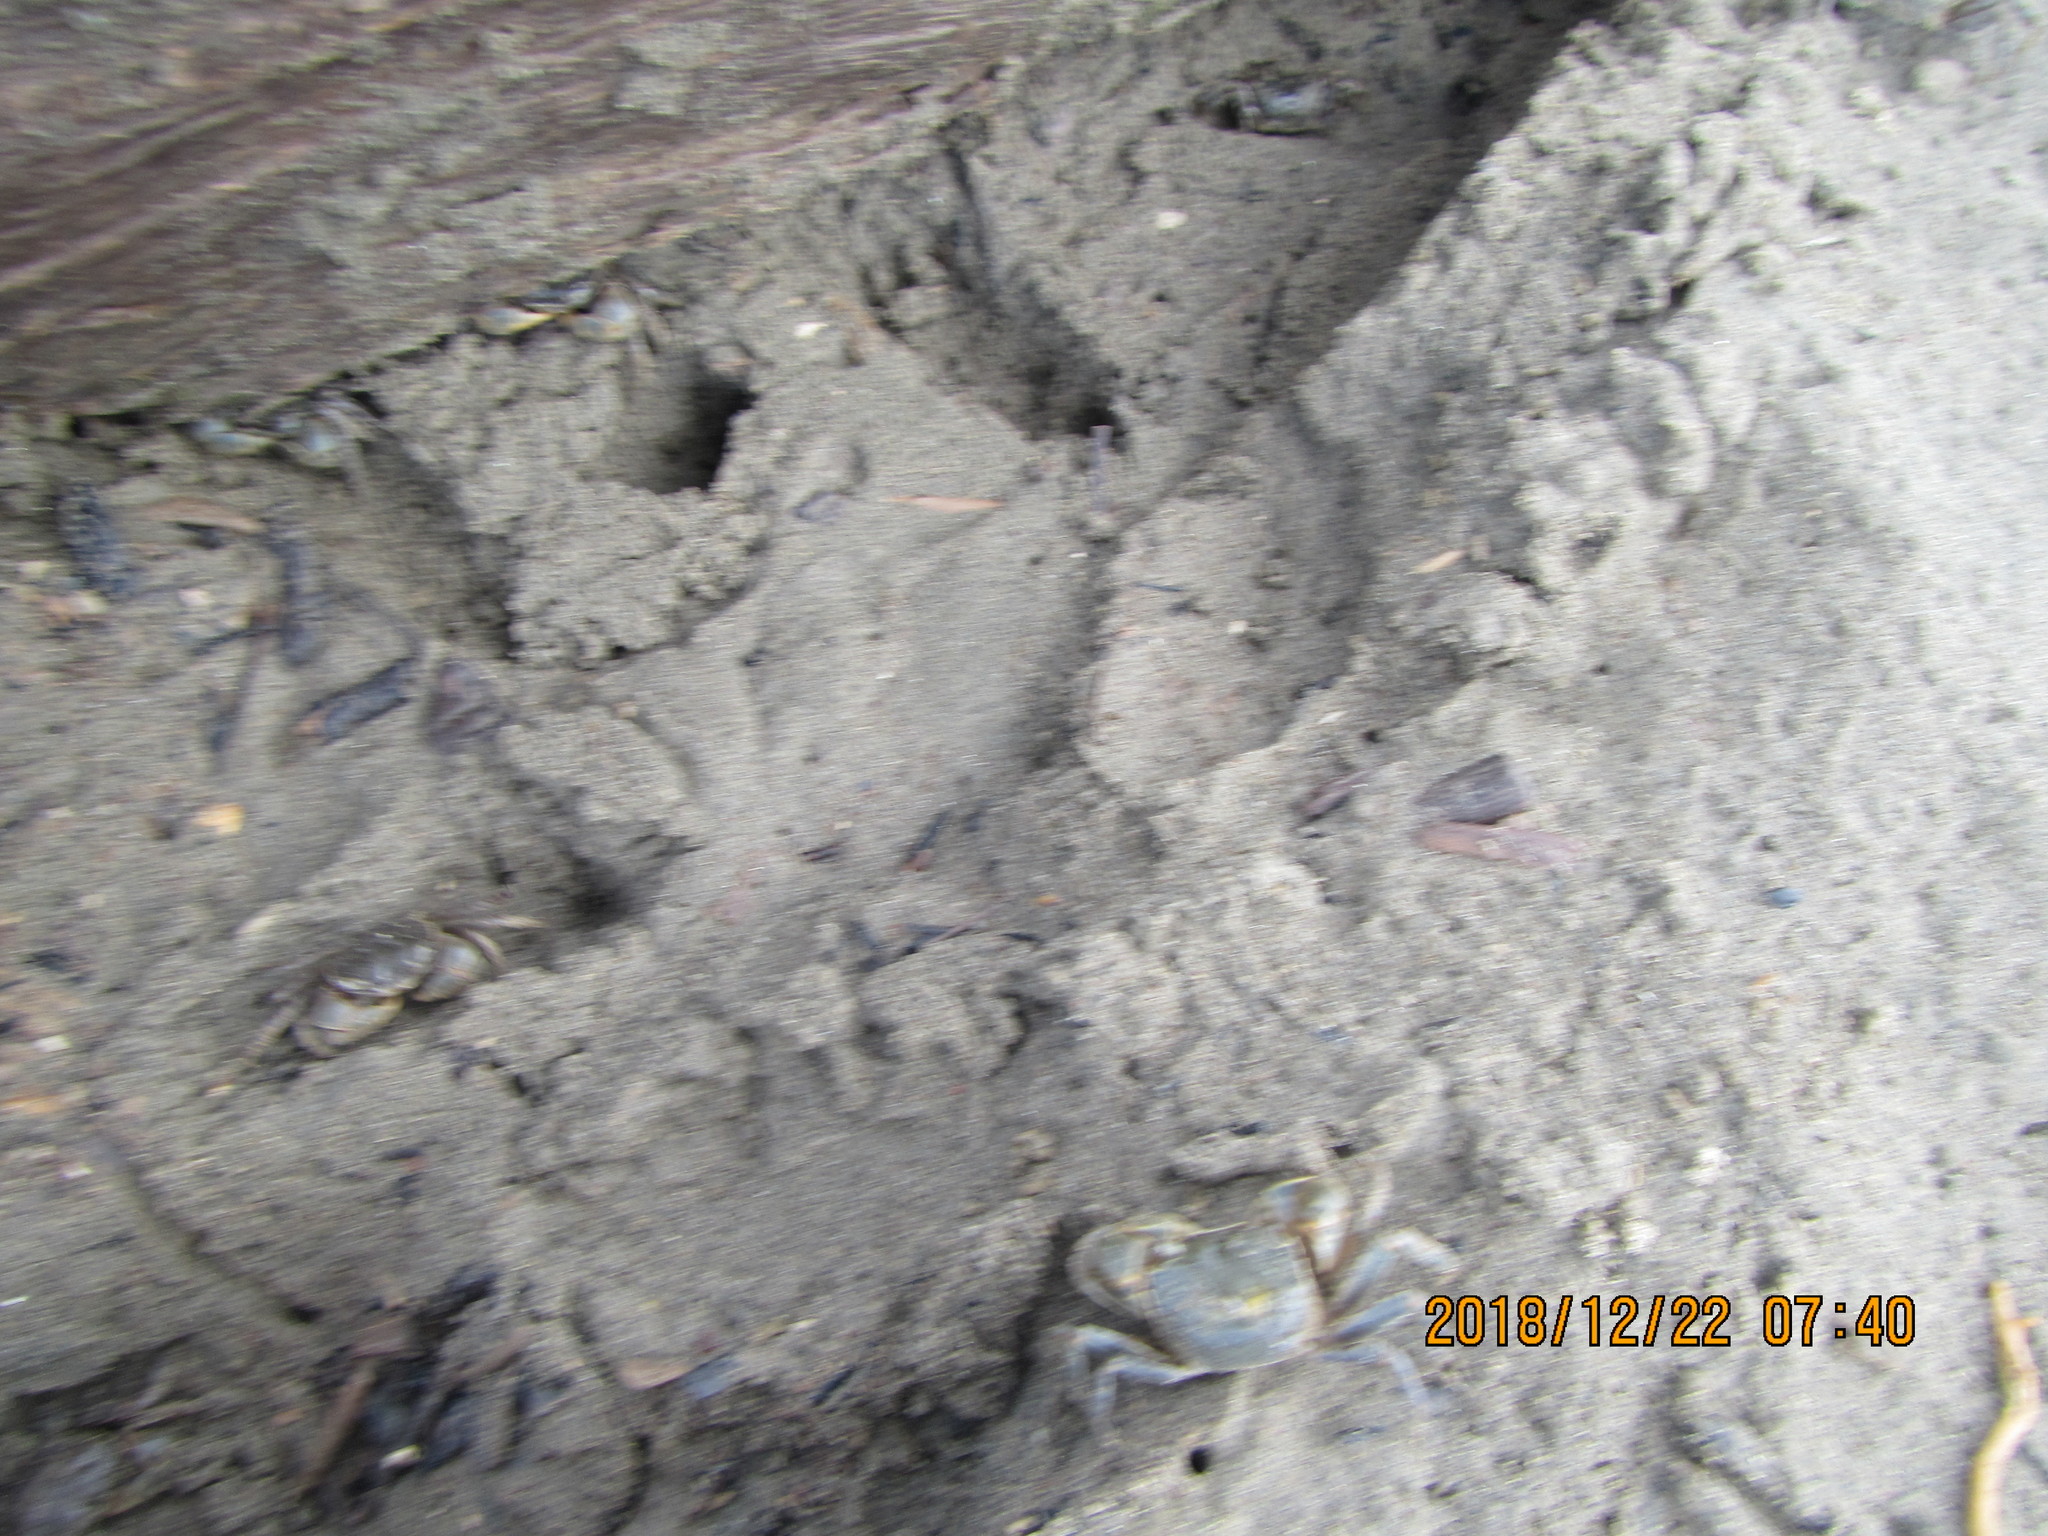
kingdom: Animalia
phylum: Arthropoda
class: Malacostraca
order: Decapoda
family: Varunidae
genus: Austrohelice
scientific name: Austrohelice crassa
